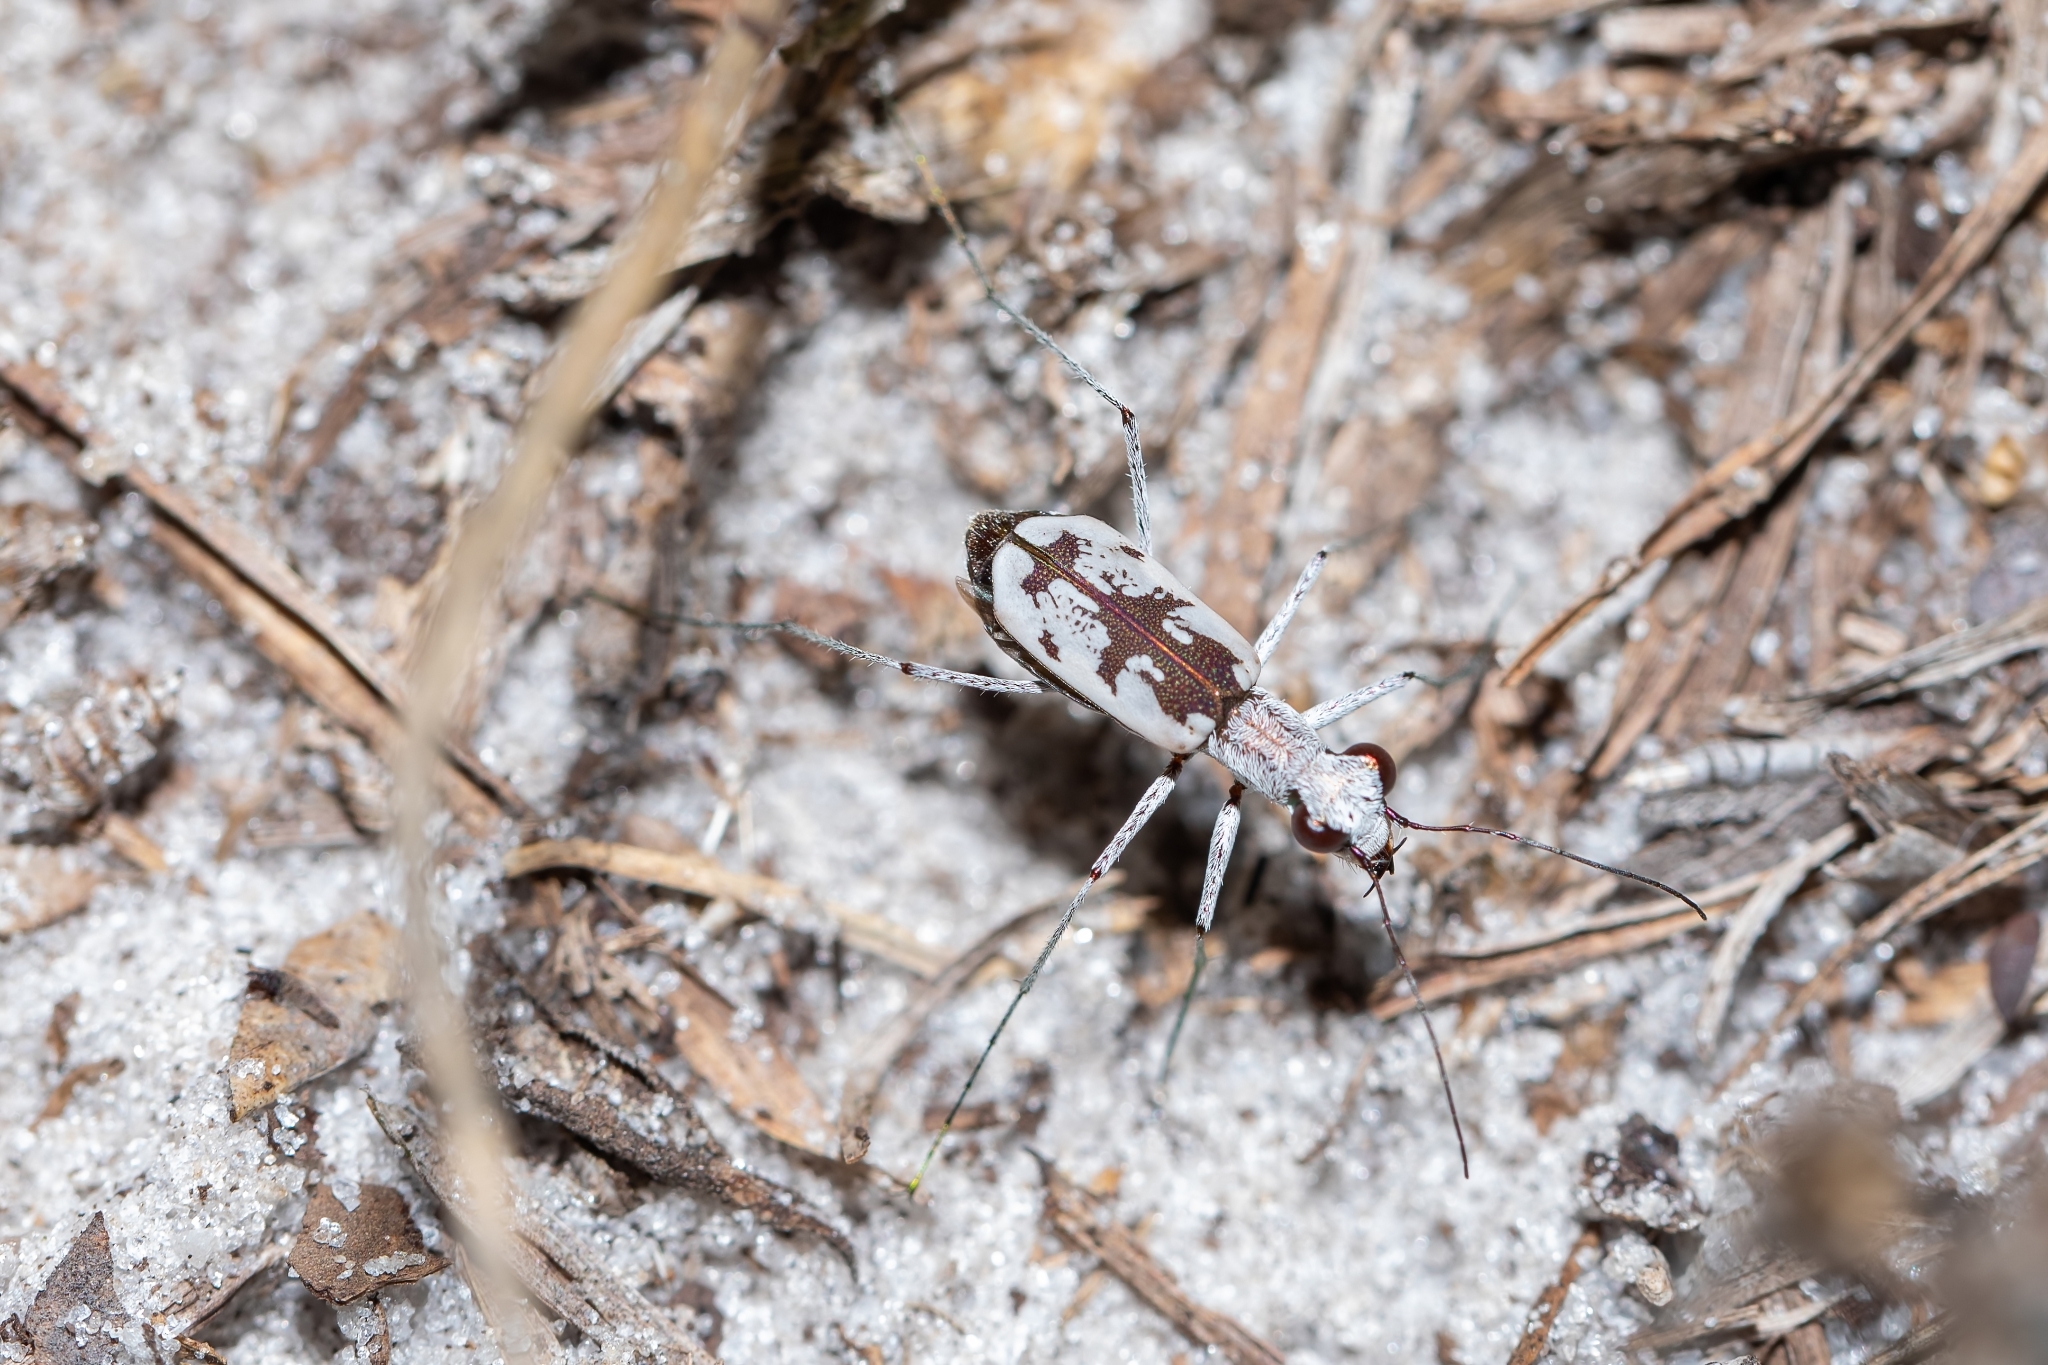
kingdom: Animalia
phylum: Arthropoda
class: Insecta
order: Coleoptera
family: Carabidae
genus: Ellipsoptera
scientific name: Ellipsoptera hirtilabris
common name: Moustached tiger beetle
